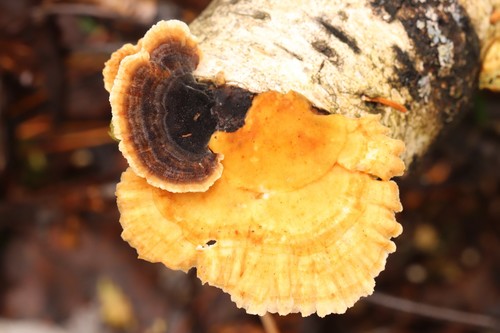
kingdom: Fungi
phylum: Basidiomycota
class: Agaricomycetes
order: Polyporales
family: Polyporaceae
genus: Trametes
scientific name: Trametes ochracea
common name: Ochre bracket
